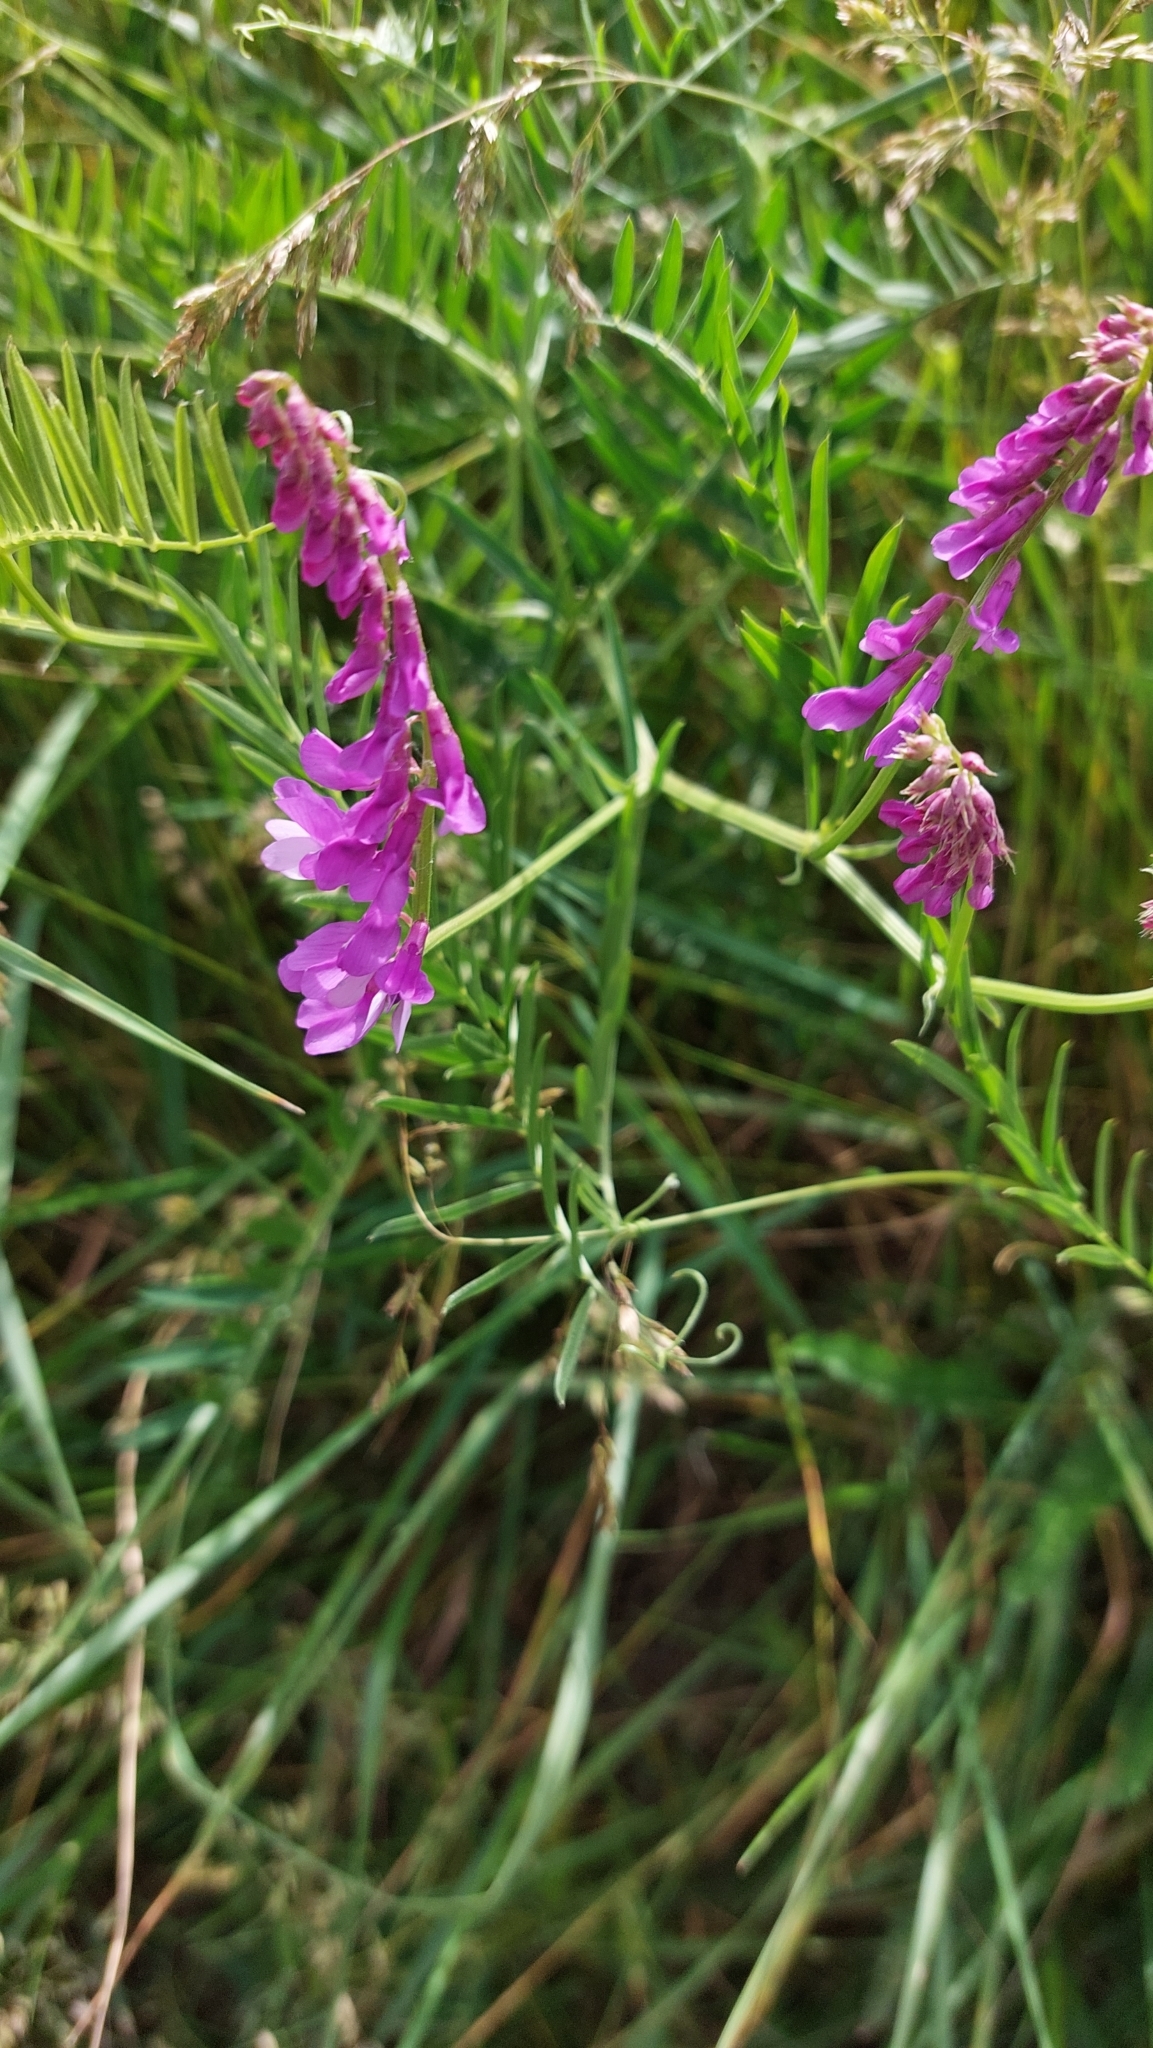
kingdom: Plantae
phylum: Tracheophyta
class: Magnoliopsida
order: Fabales
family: Fabaceae
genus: Vicia
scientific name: Vicia tenuifolia
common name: Fine-leaved vetch
